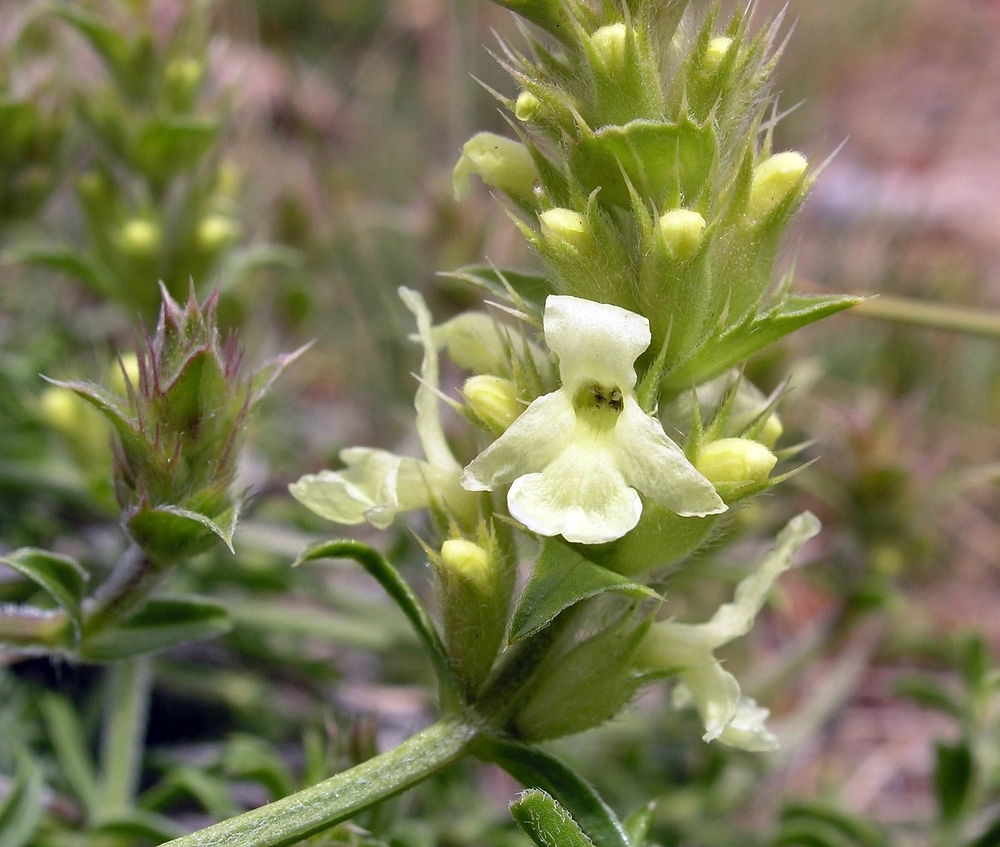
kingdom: Plantae
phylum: Tracheophyta
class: Magnoliopsida
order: Lamiales
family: Lamiaceae
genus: Sideritis
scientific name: Sideritis hyssopifolia
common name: Mountain tea
